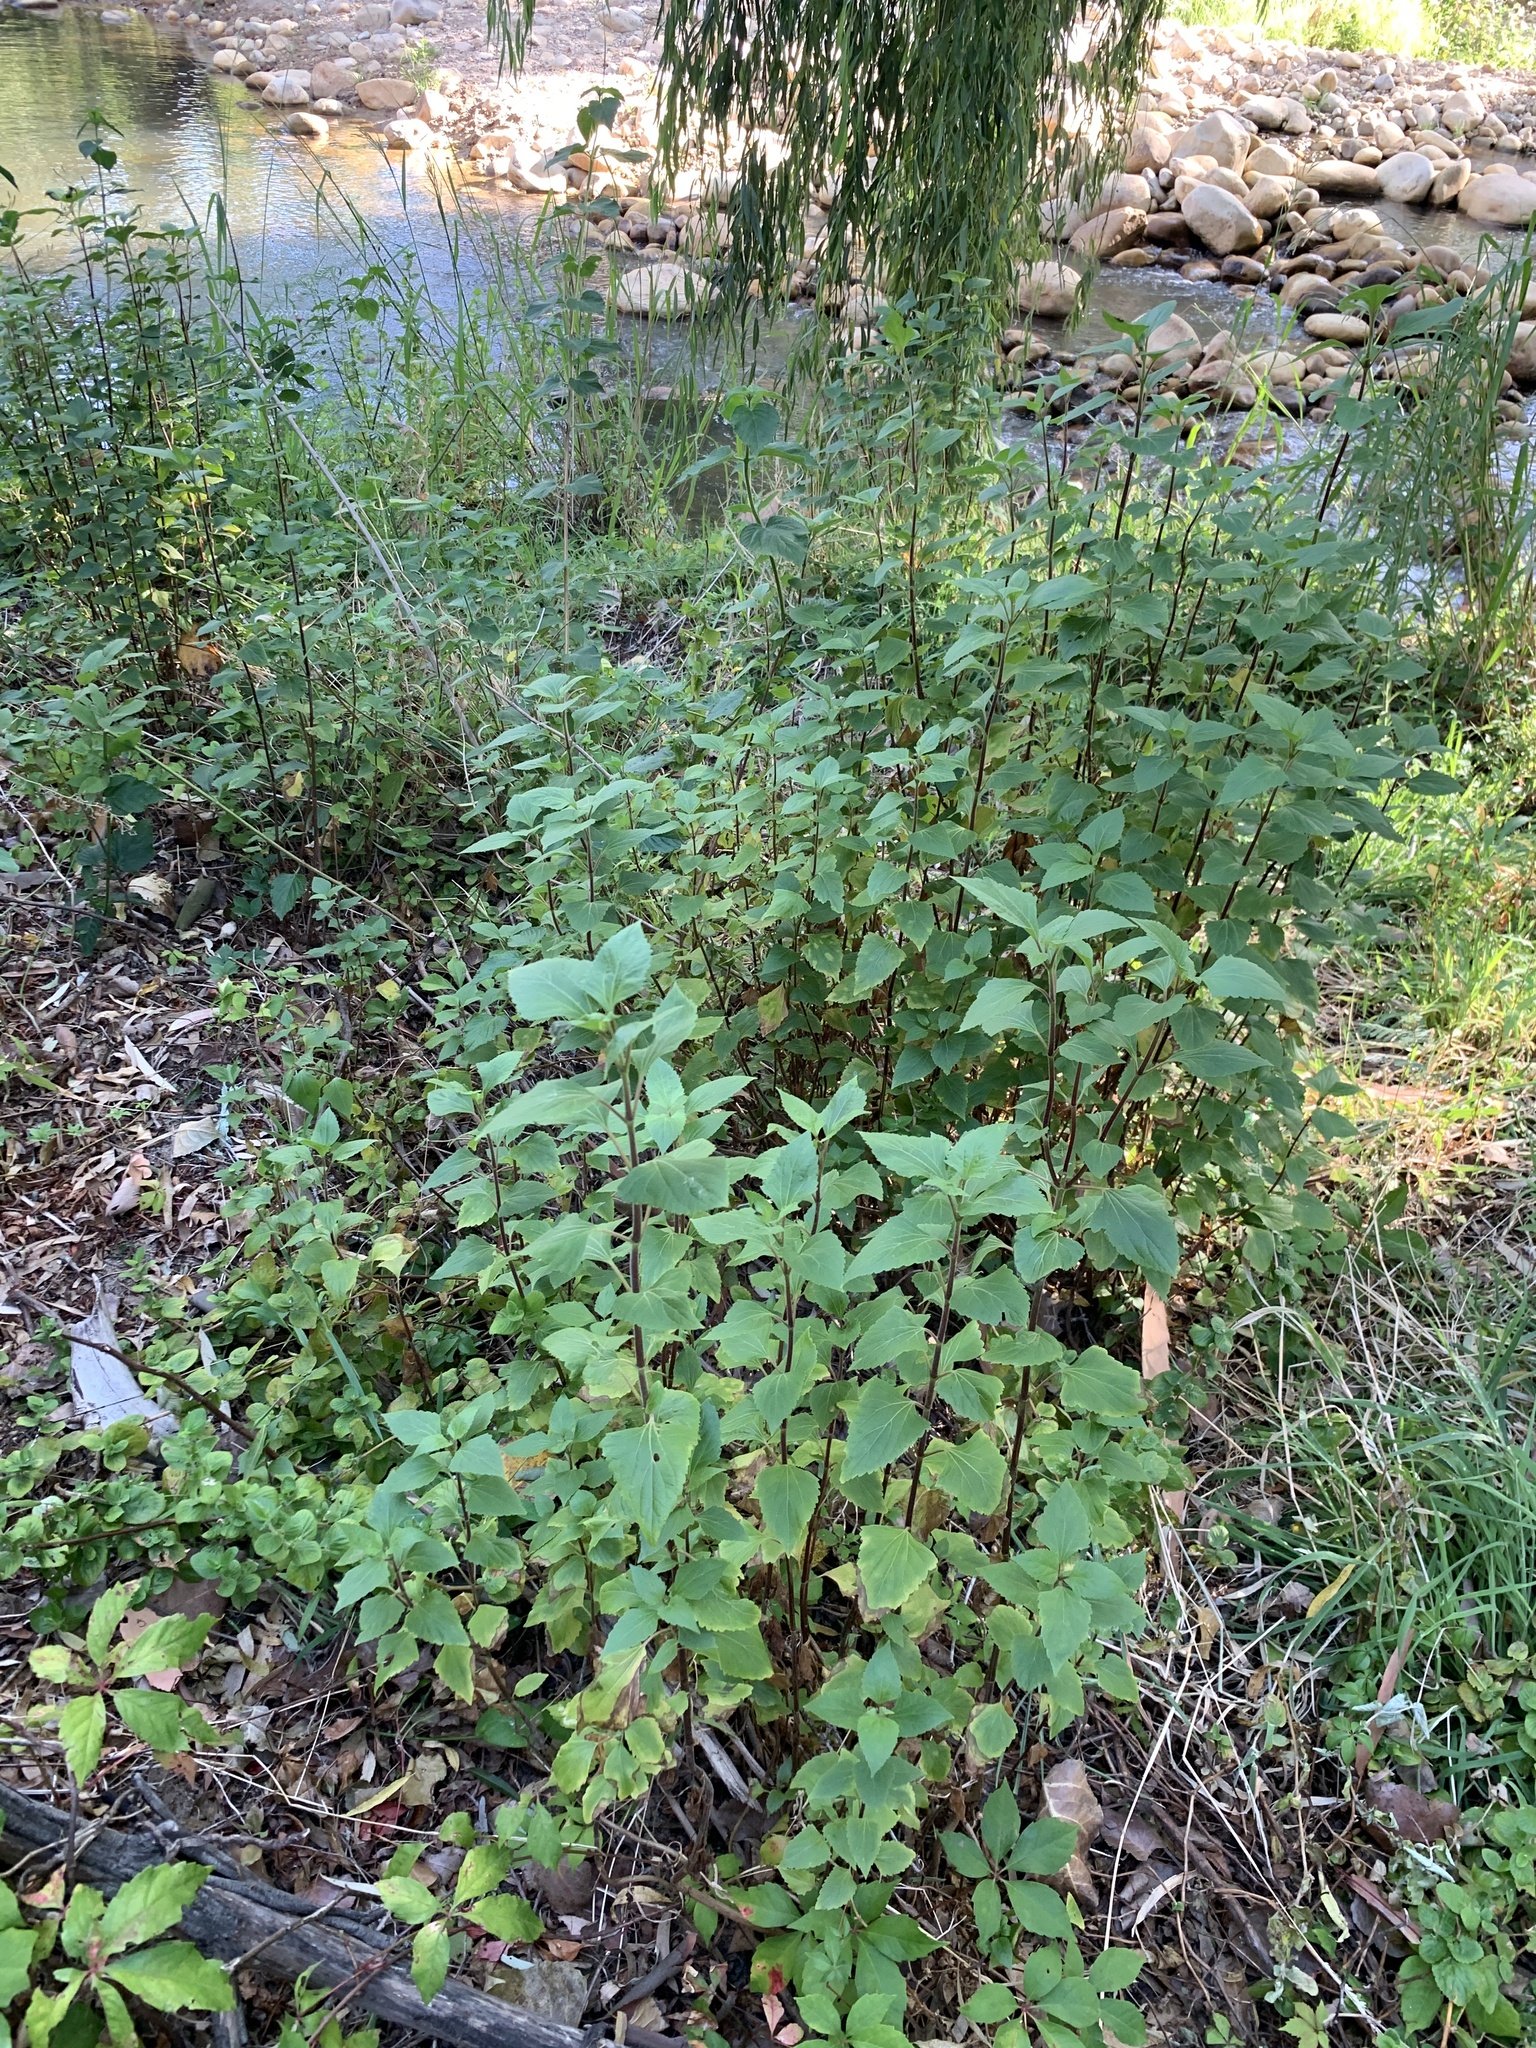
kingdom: Plantae
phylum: Tracheophyta
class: Magnoliopsida
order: Asterales
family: Asteraceae
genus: Ageratina
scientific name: Ageratina adenophora
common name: Sticky snakeroot
